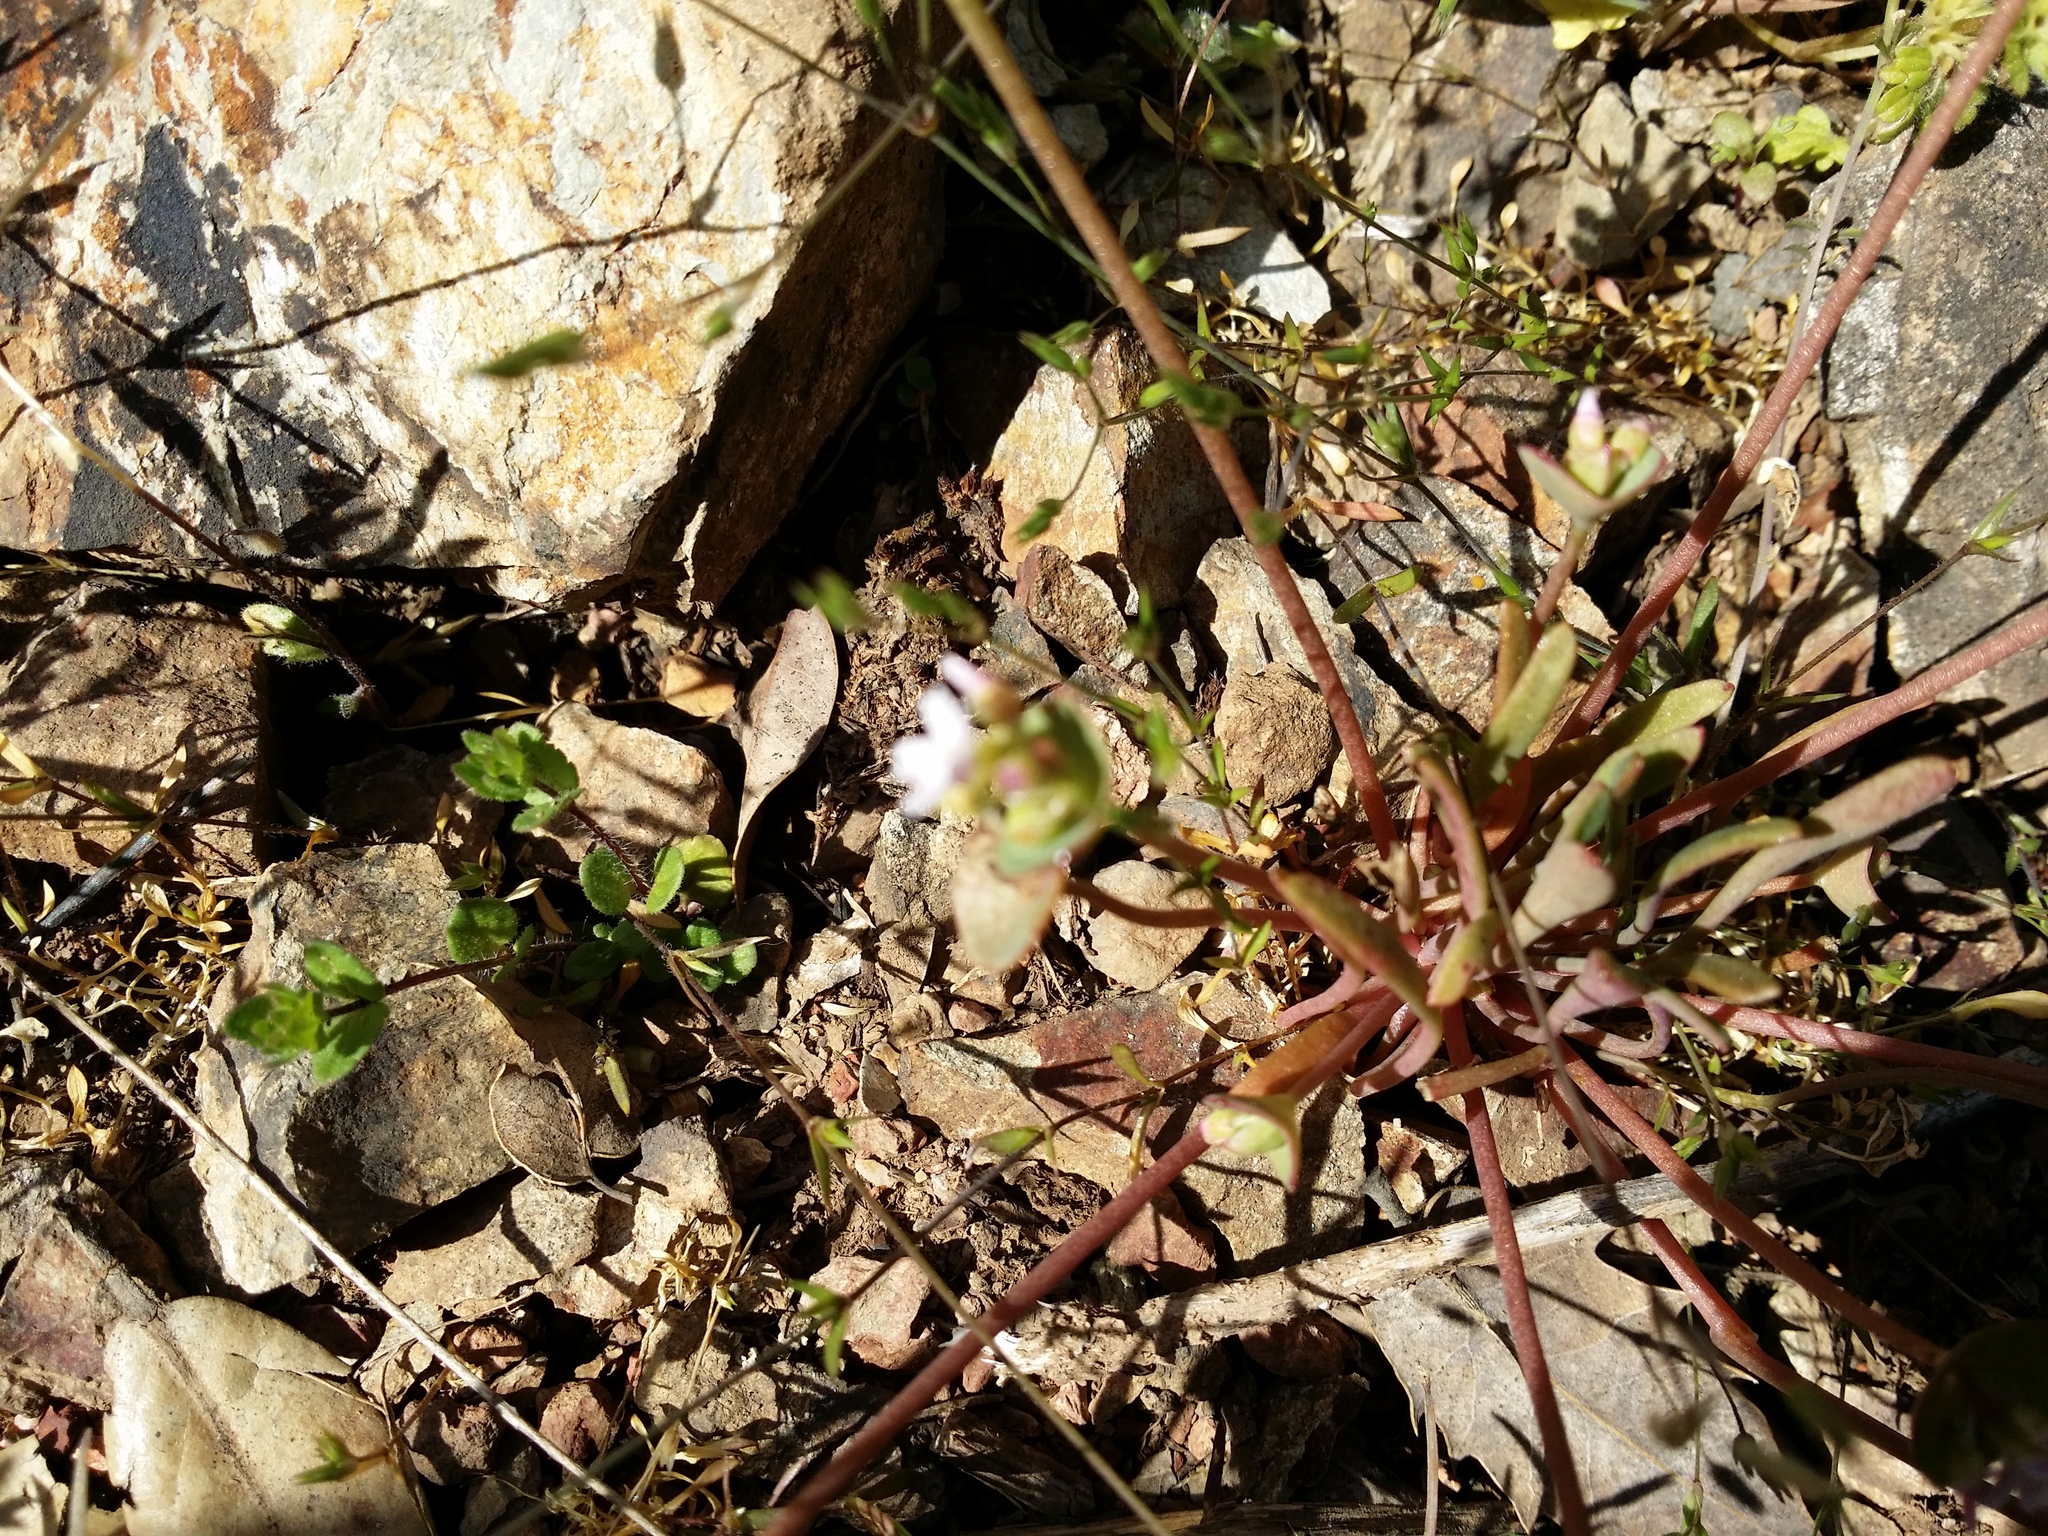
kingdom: Plantae
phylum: Tracheophyta
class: Magnoliopsida
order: Caryophyllales
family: Montiaceae
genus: Claytonia
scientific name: Claytonia parviflora
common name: Indian-lettuce
